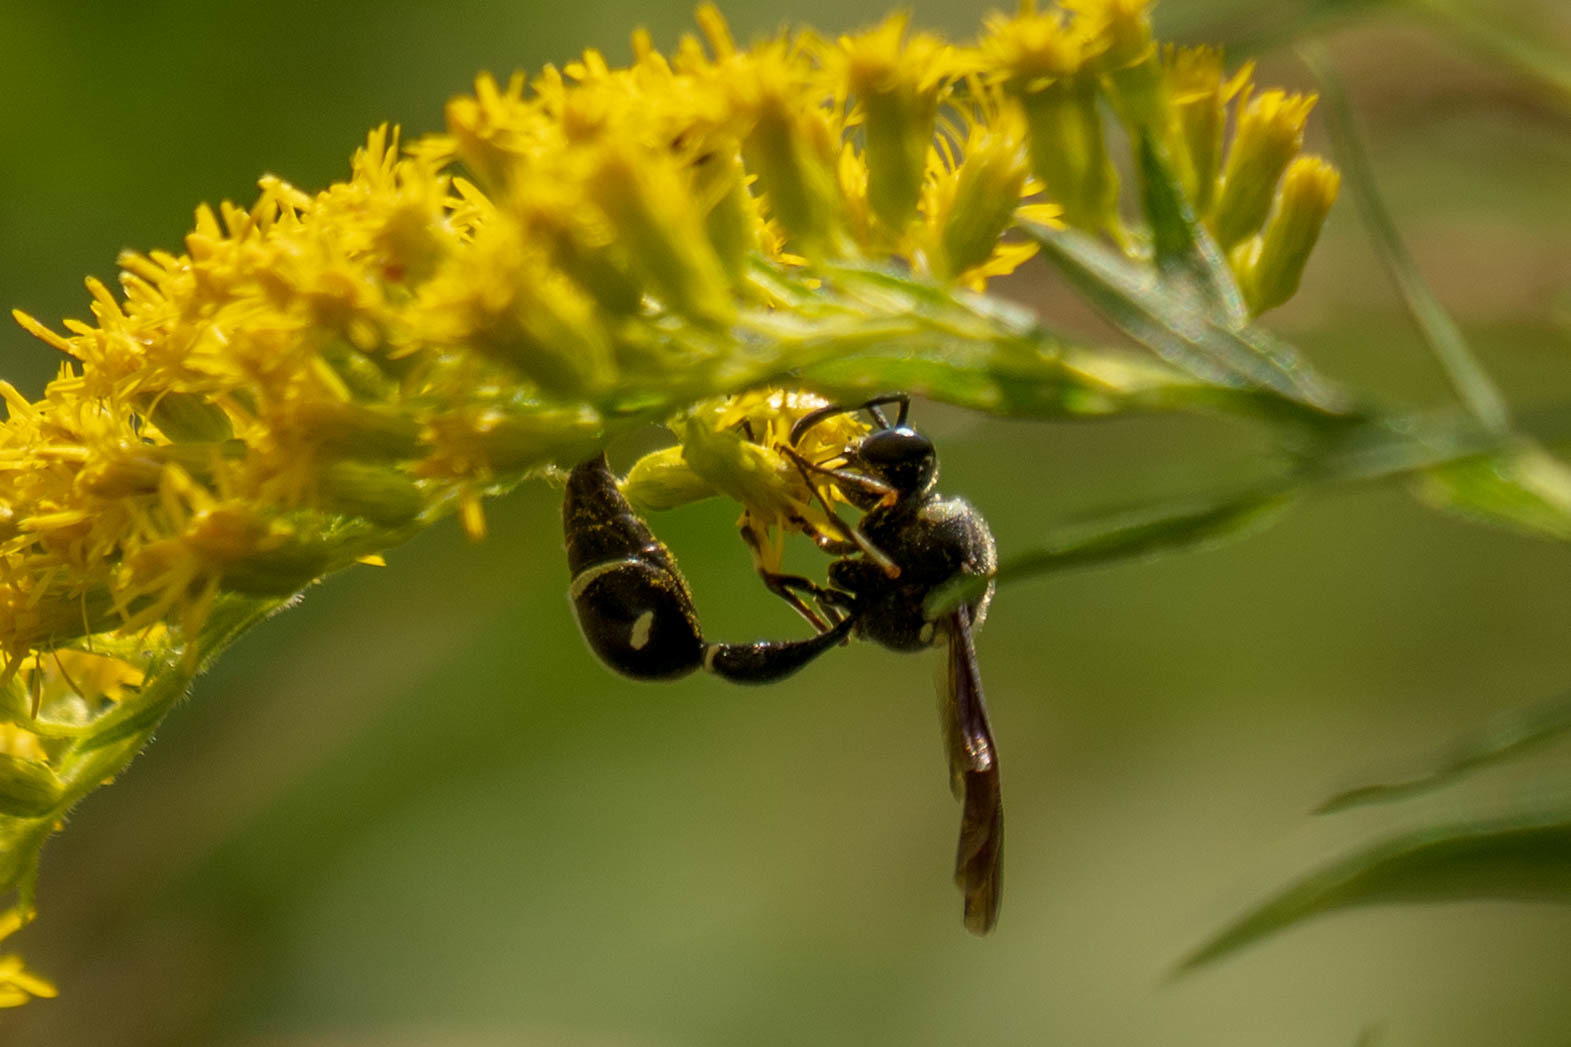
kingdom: Animalia
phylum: Arthropoda
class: Insecta
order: Hymenoptera
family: Vespidae
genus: Eumenes
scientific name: Eumenes fraternus
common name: Fraternal potter wasp
